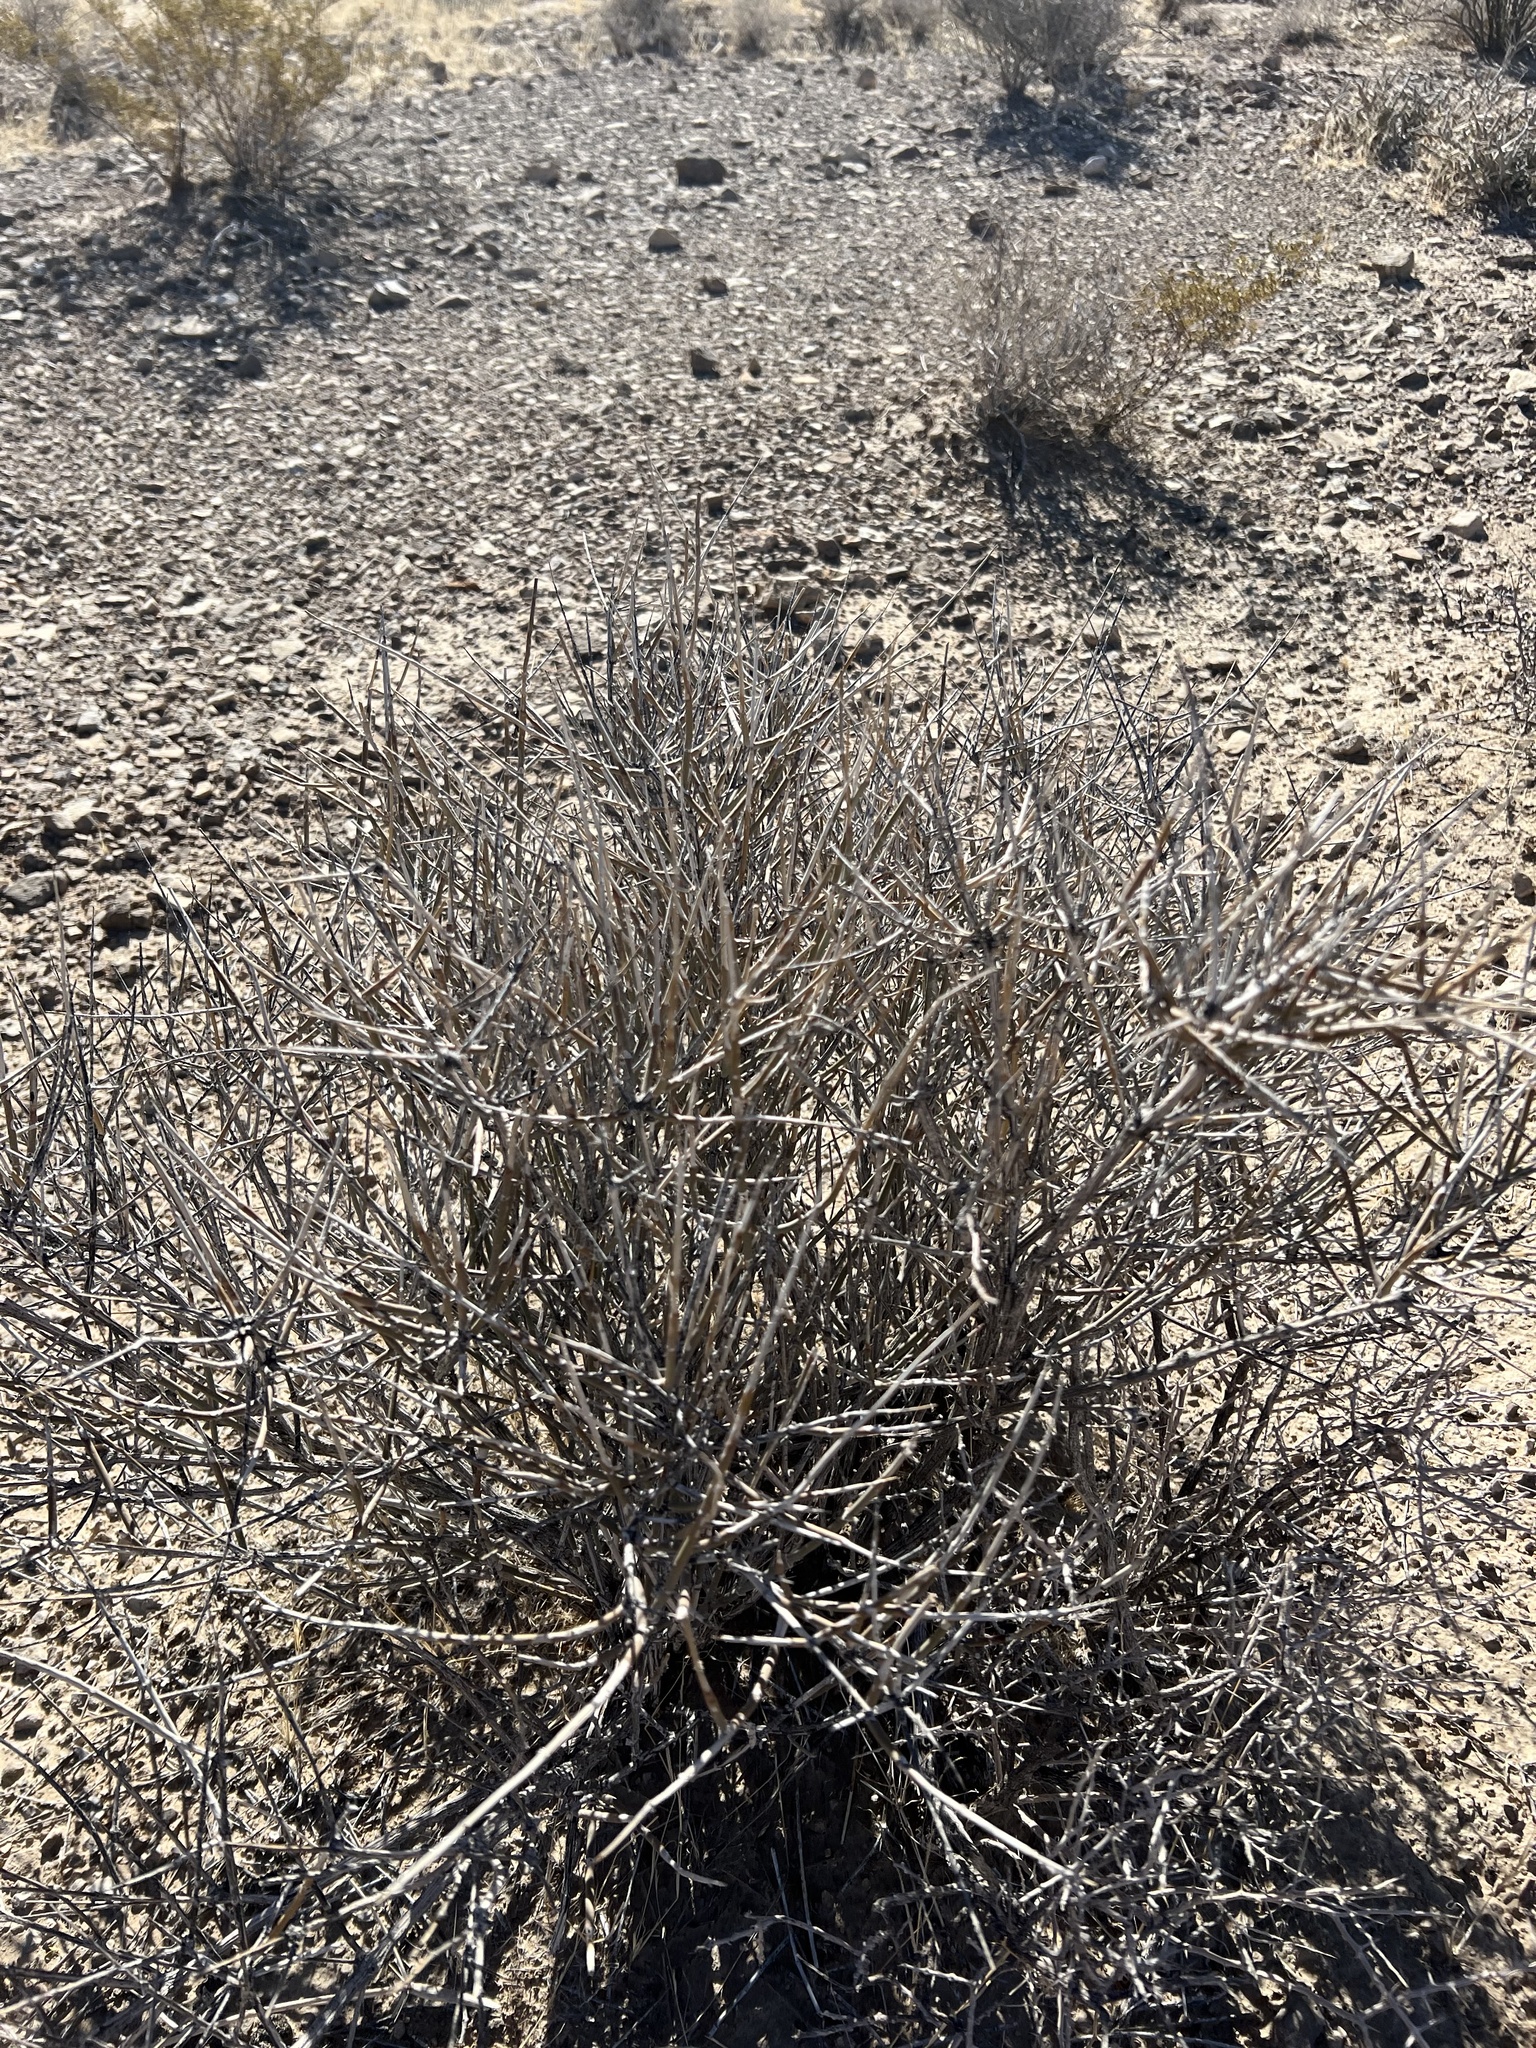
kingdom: Plantae
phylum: Tracheophyta
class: Gnetopsida
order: Ephedrales
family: Ephedraceae
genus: Ephedra
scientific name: Ephedra nevadensis
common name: Gray ephedra
